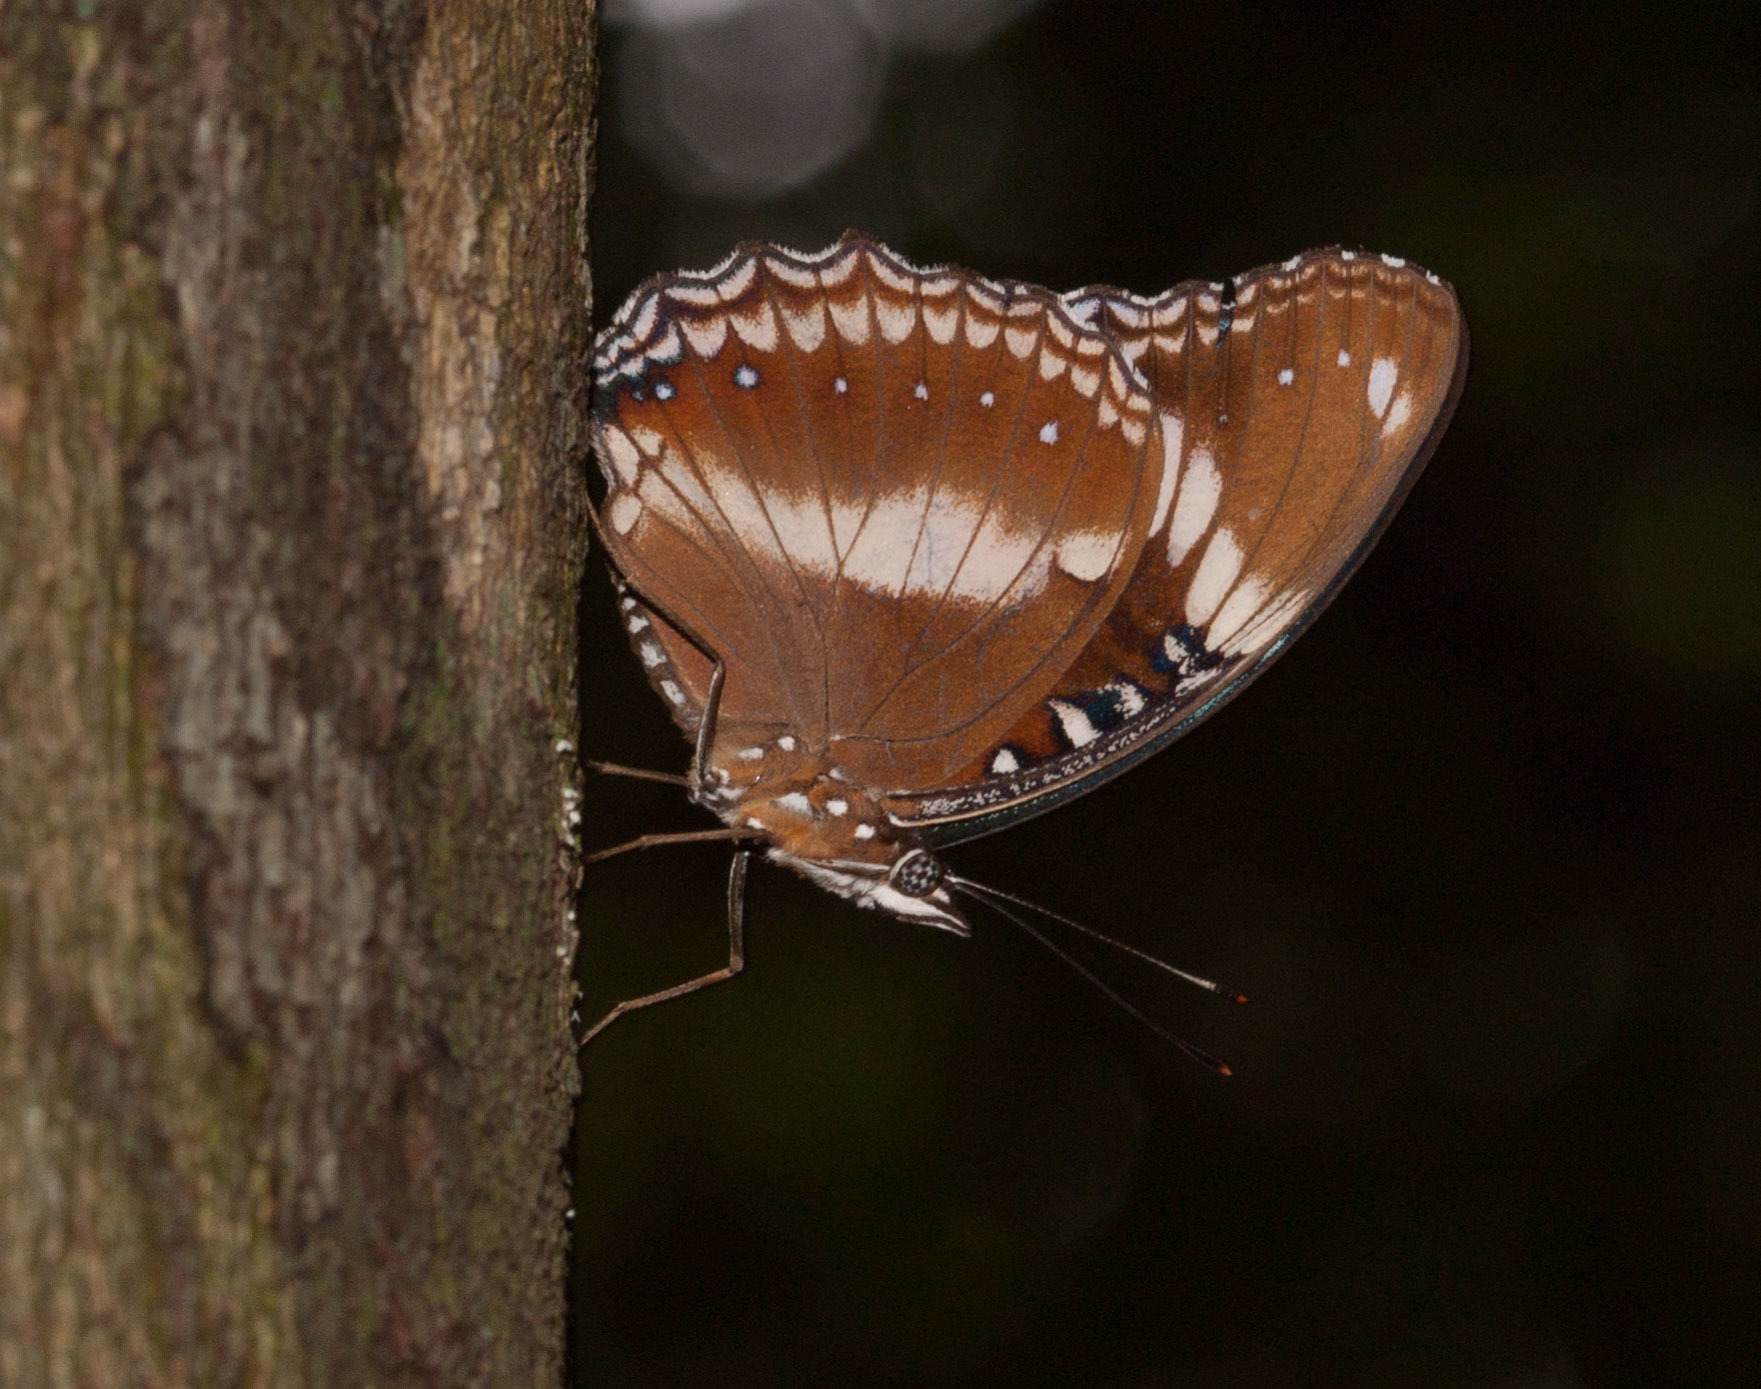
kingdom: Animalia
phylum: Arthropoda
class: Insecta
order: Lepidoptera
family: Nymphalidae
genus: Hypolimnas
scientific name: Hypolimnas bolina
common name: Great eggfly
